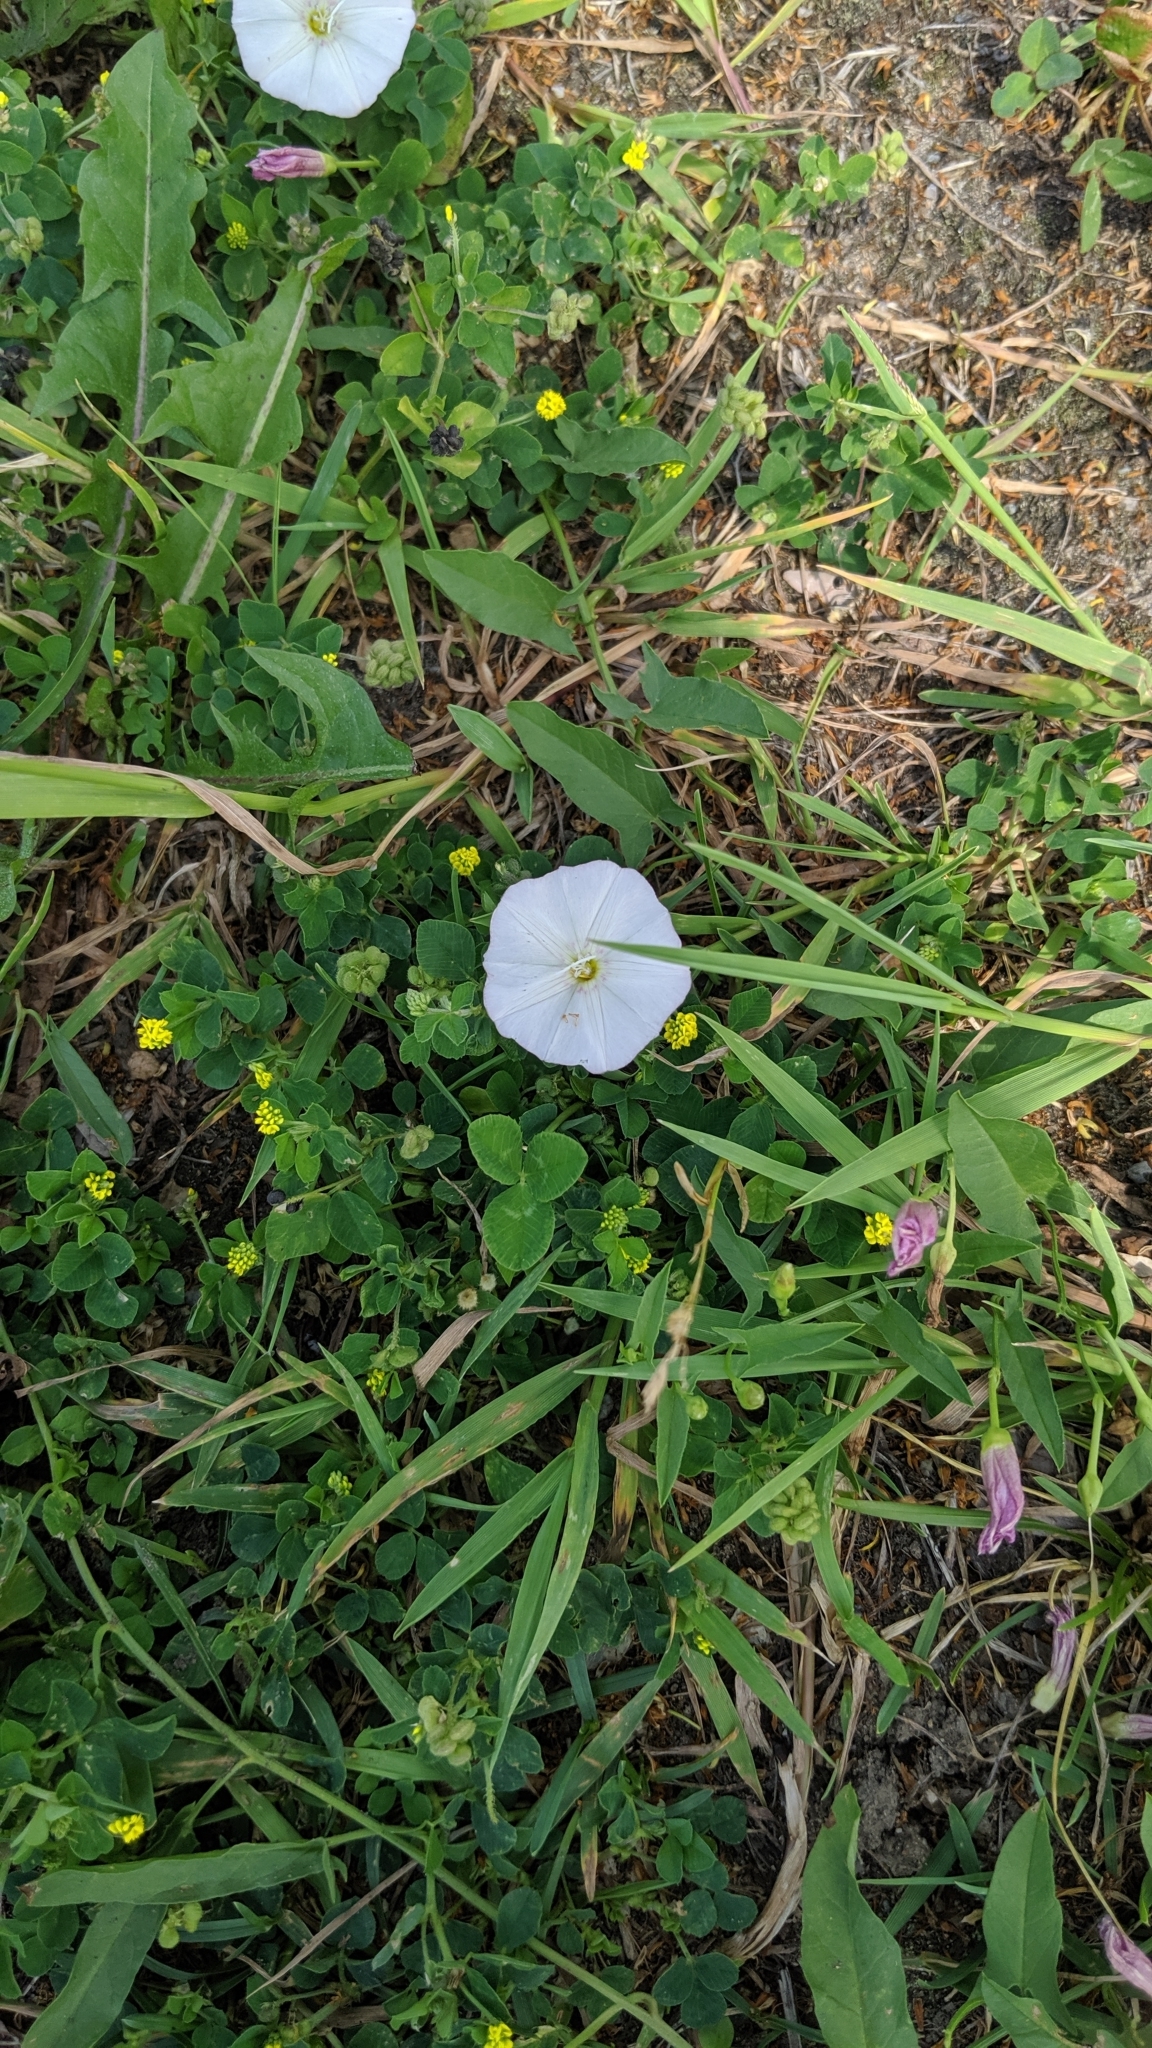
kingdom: Plantae
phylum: Tracheophyta
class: Magnoliopsida
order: Solanales
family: Convolvulaceae
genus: Convolvulus
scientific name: Convolvulus arvensis
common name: Field bindweed
